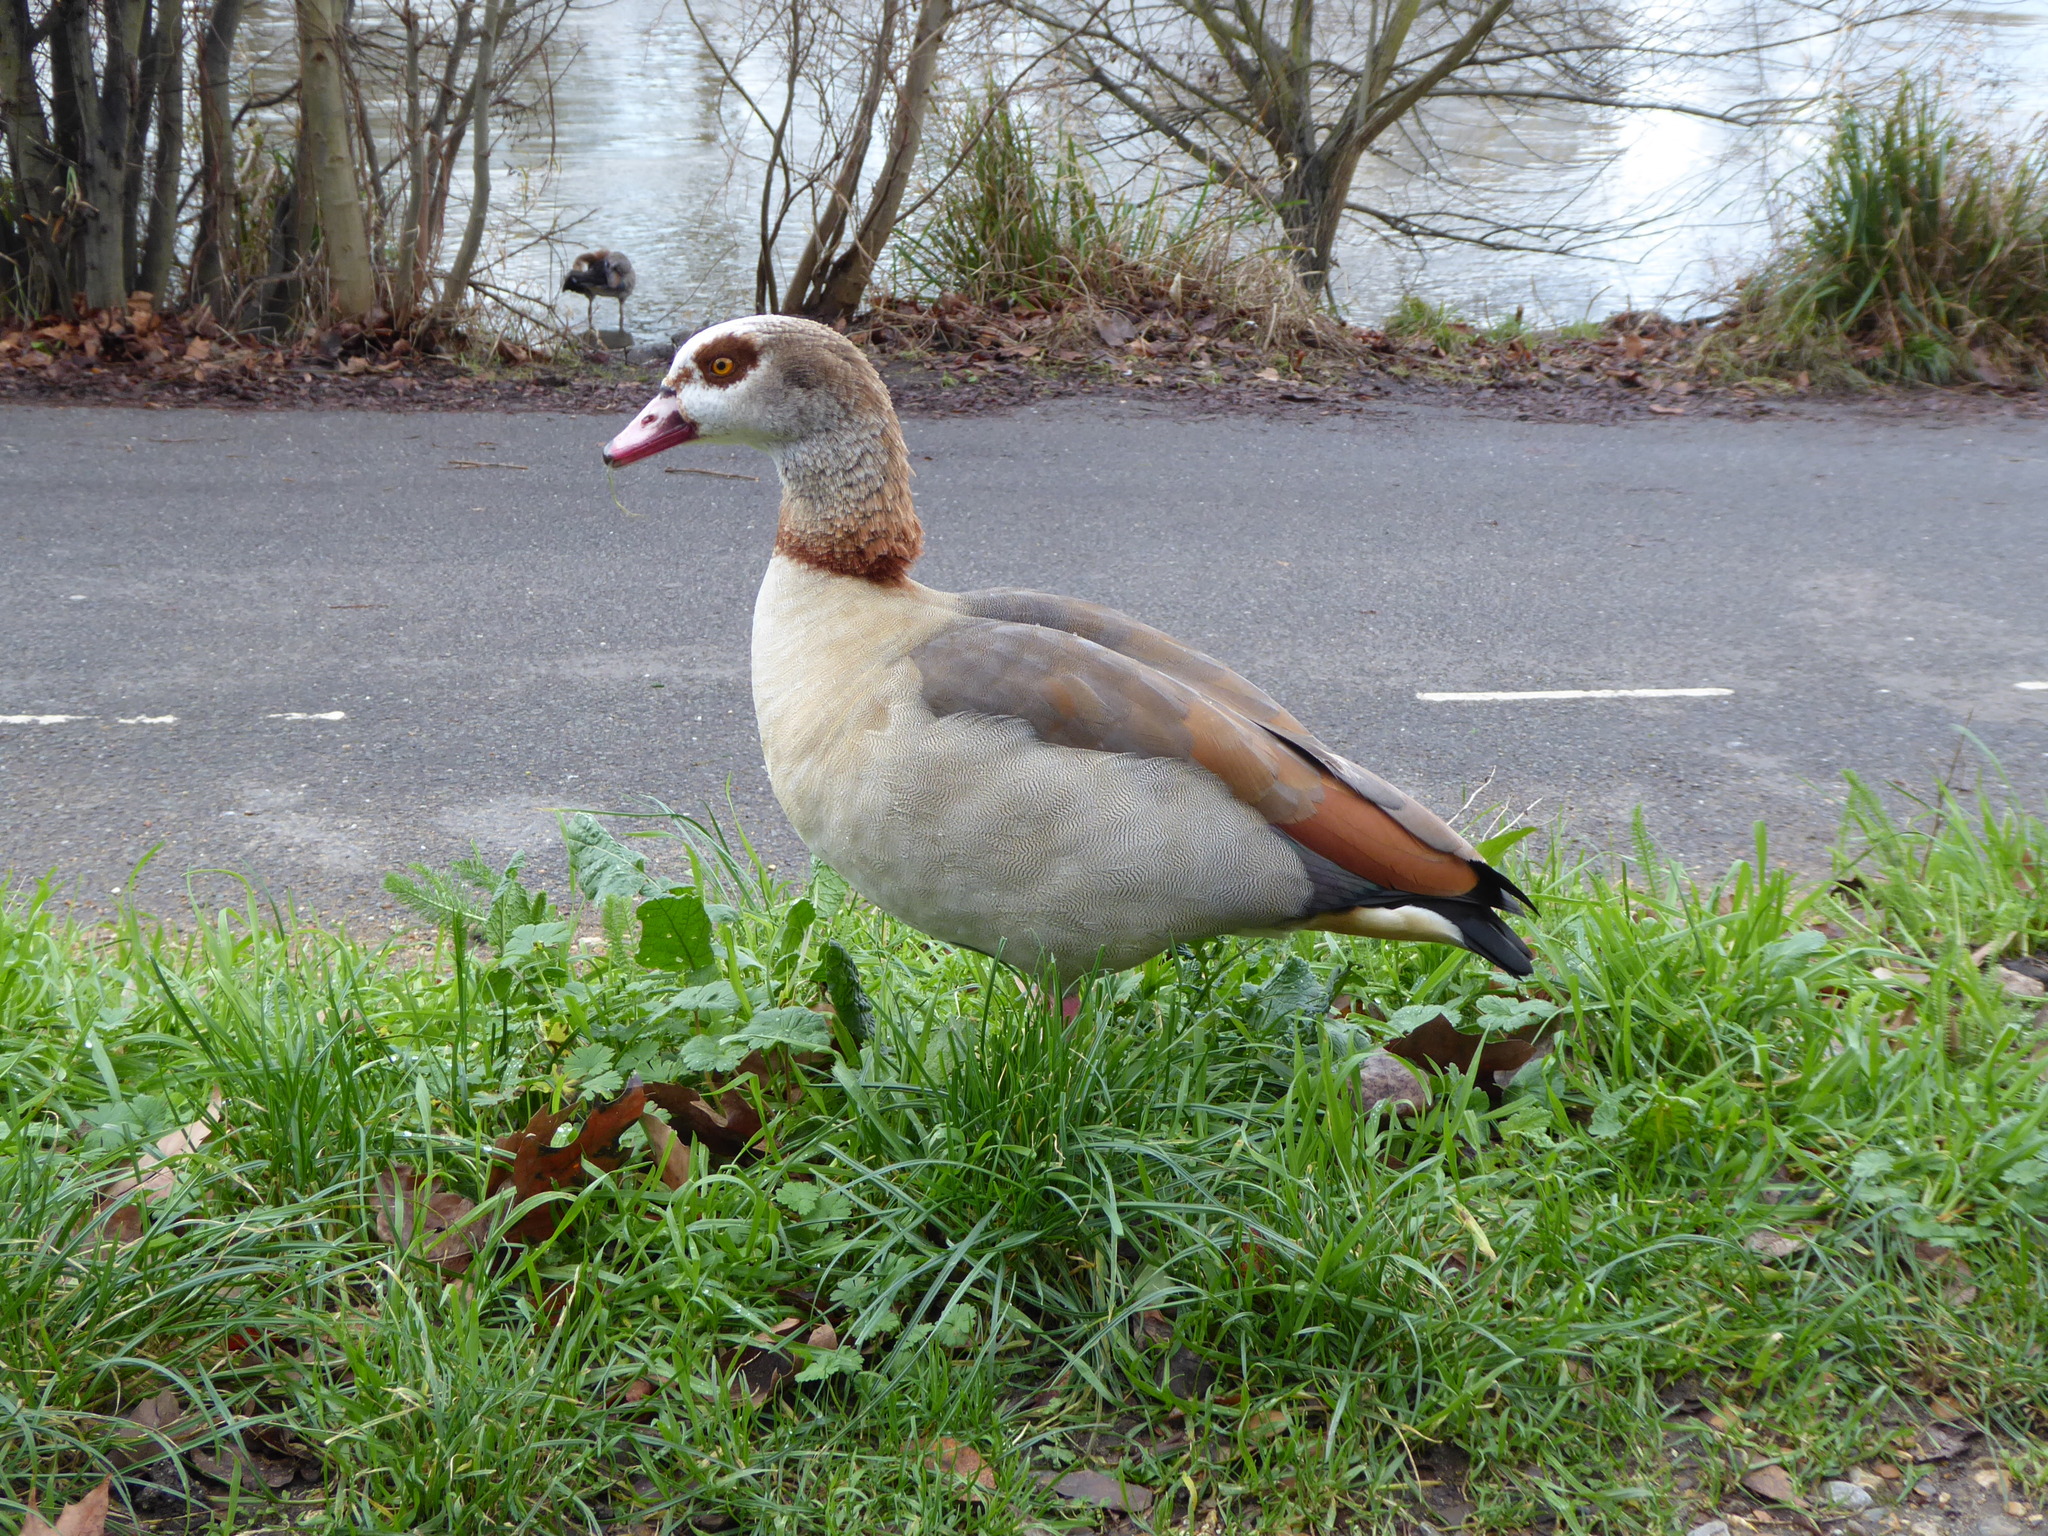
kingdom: Animalia
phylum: Chordata
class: Aves
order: Anseriformes
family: Anatidae
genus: Alopochen
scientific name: Alopochen aegyptiaca
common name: Egyptian goose
